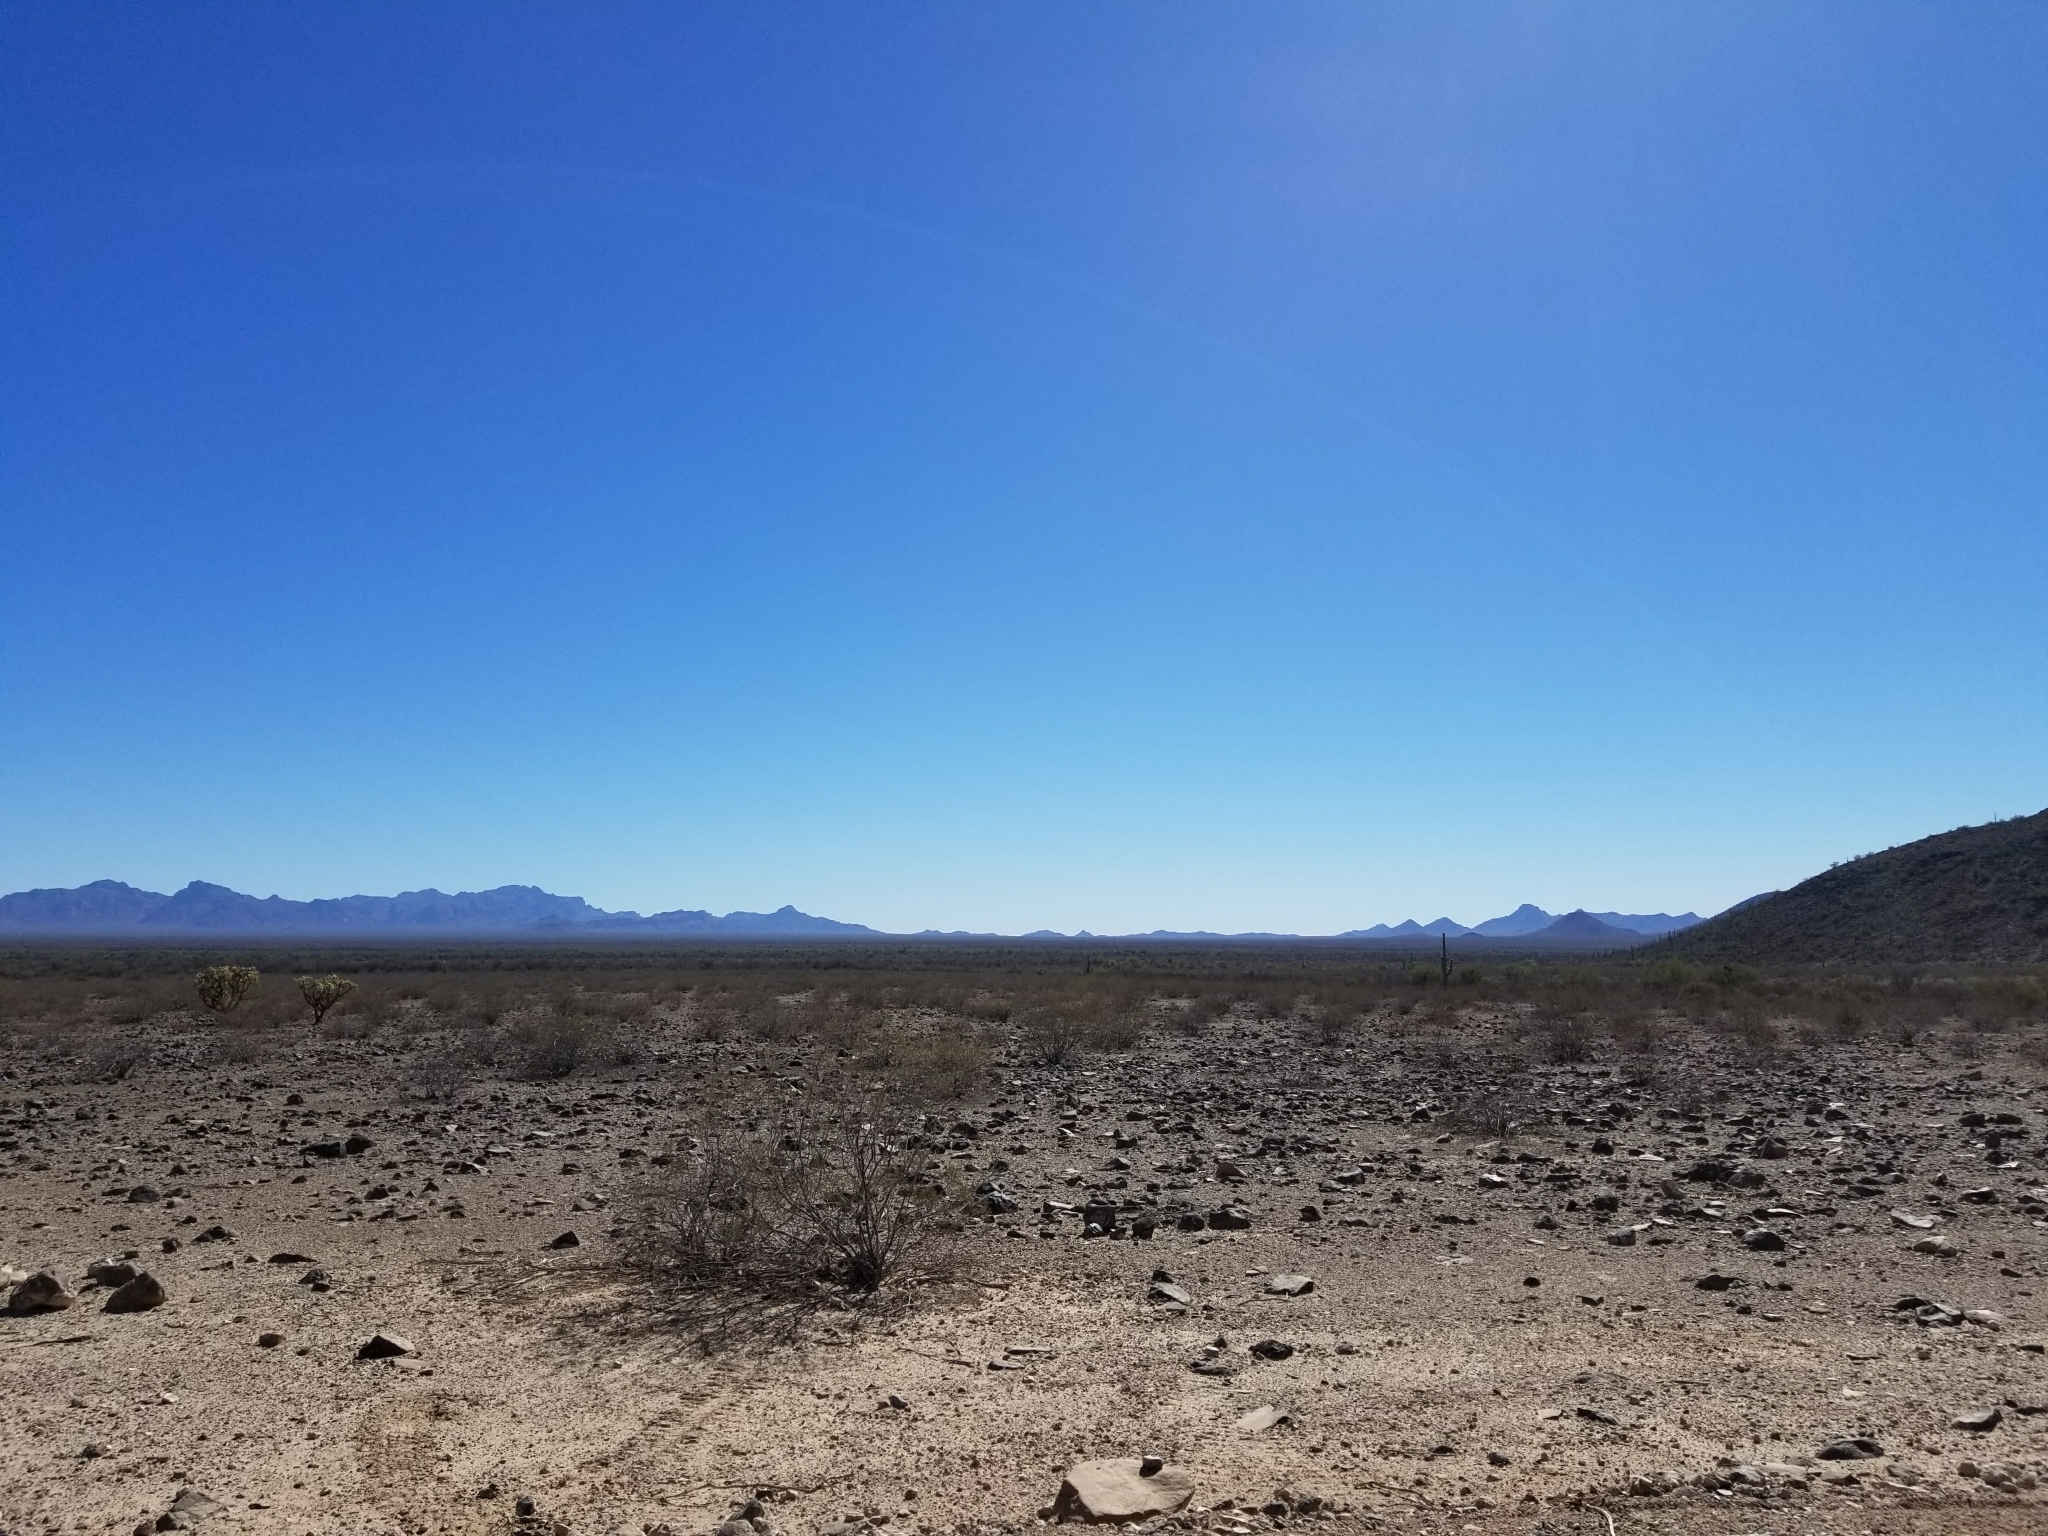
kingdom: Plantae
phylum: Tracheophyta
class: Magnoliopsida
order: Zygophyllales
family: Zygophyllaceae
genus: Larrea
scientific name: Larrea tridentata
